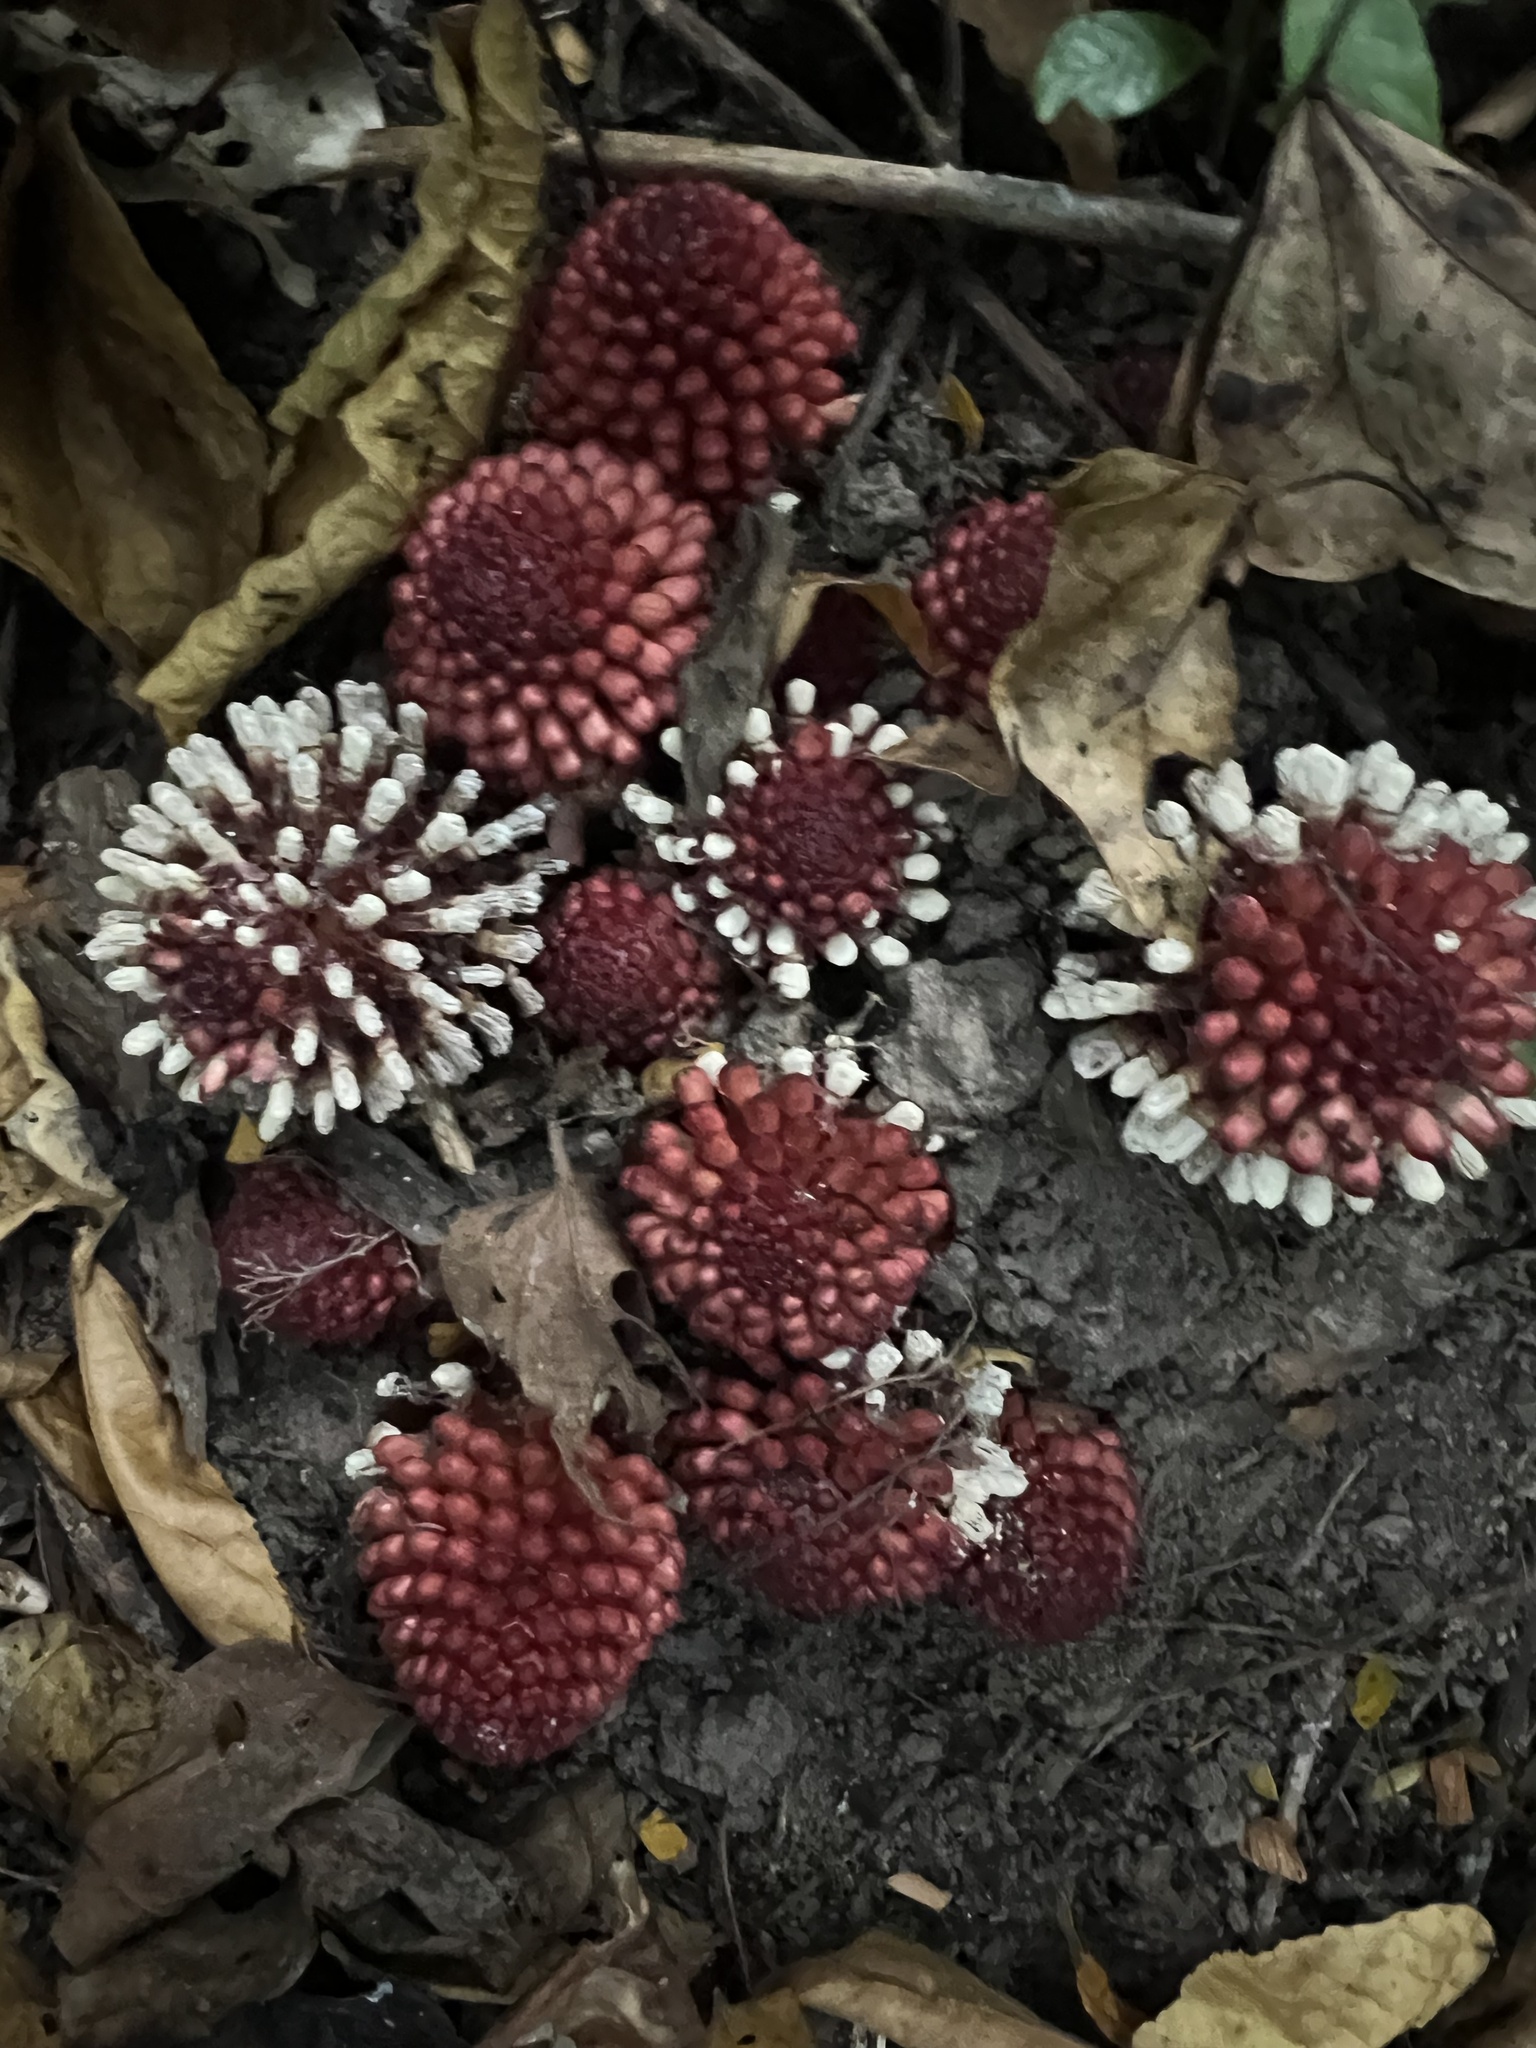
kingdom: Plantae
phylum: Tracheophyta
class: Magnoliopsida
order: Santalales
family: Balanophoraceae
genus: Balanophora
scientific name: Balanophora fungosa
